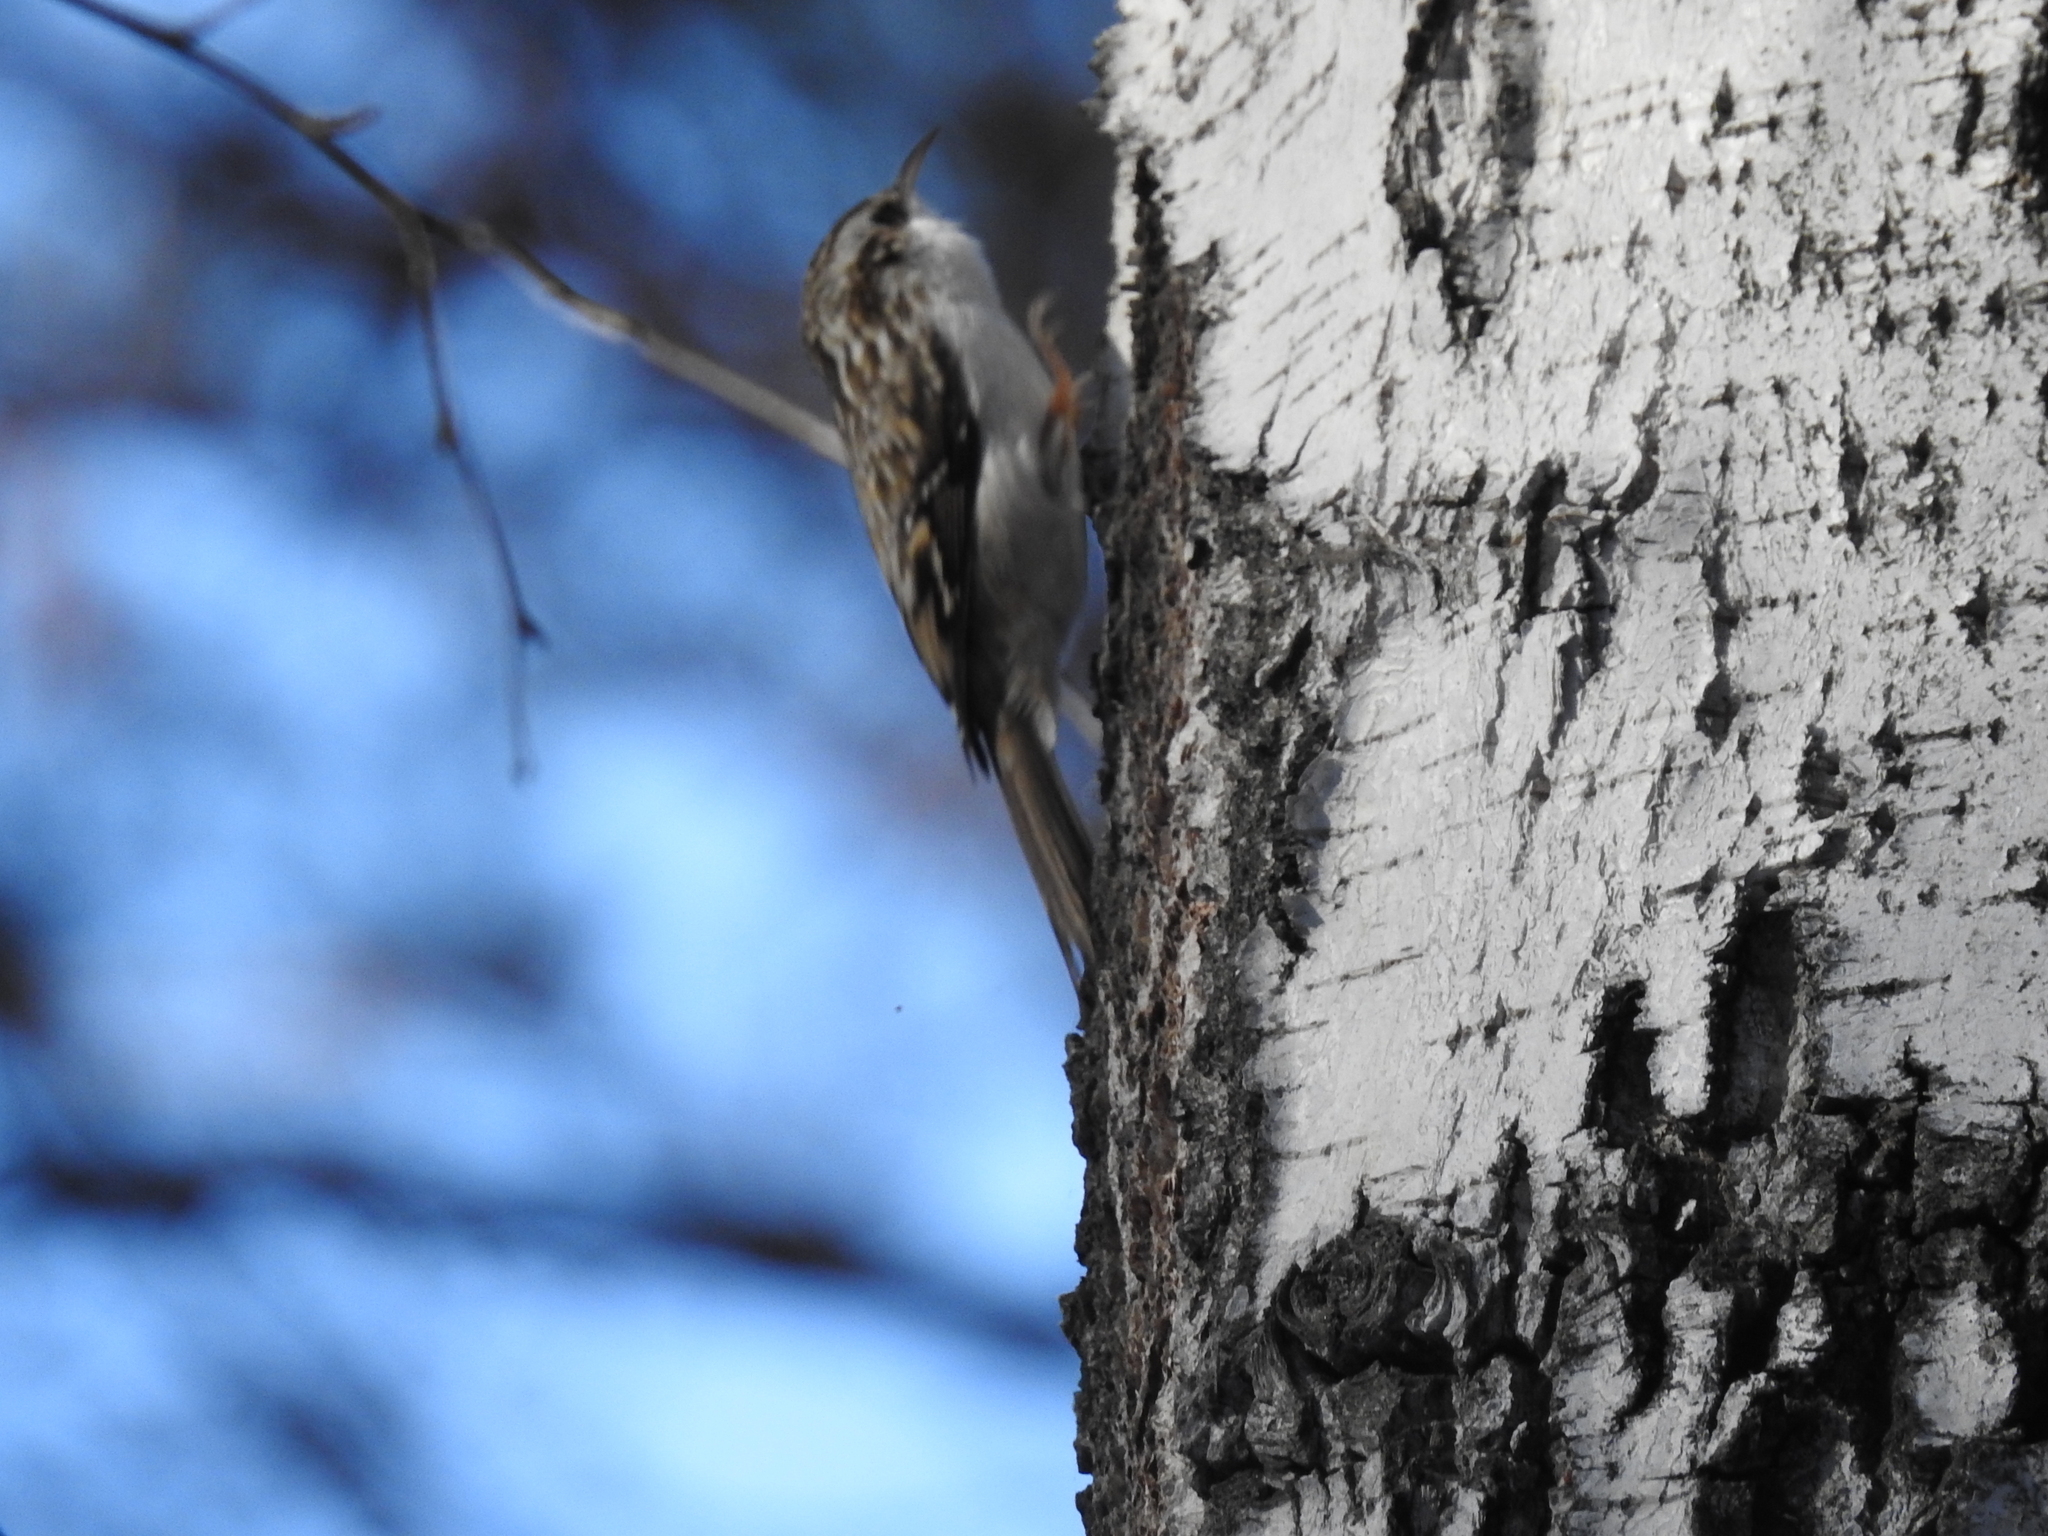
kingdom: Animalia
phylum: Chordata
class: Aves
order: Passeriformes
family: Certhiidae
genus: Certhia
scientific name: Certhia familiaris
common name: Eurasian treecreeper
